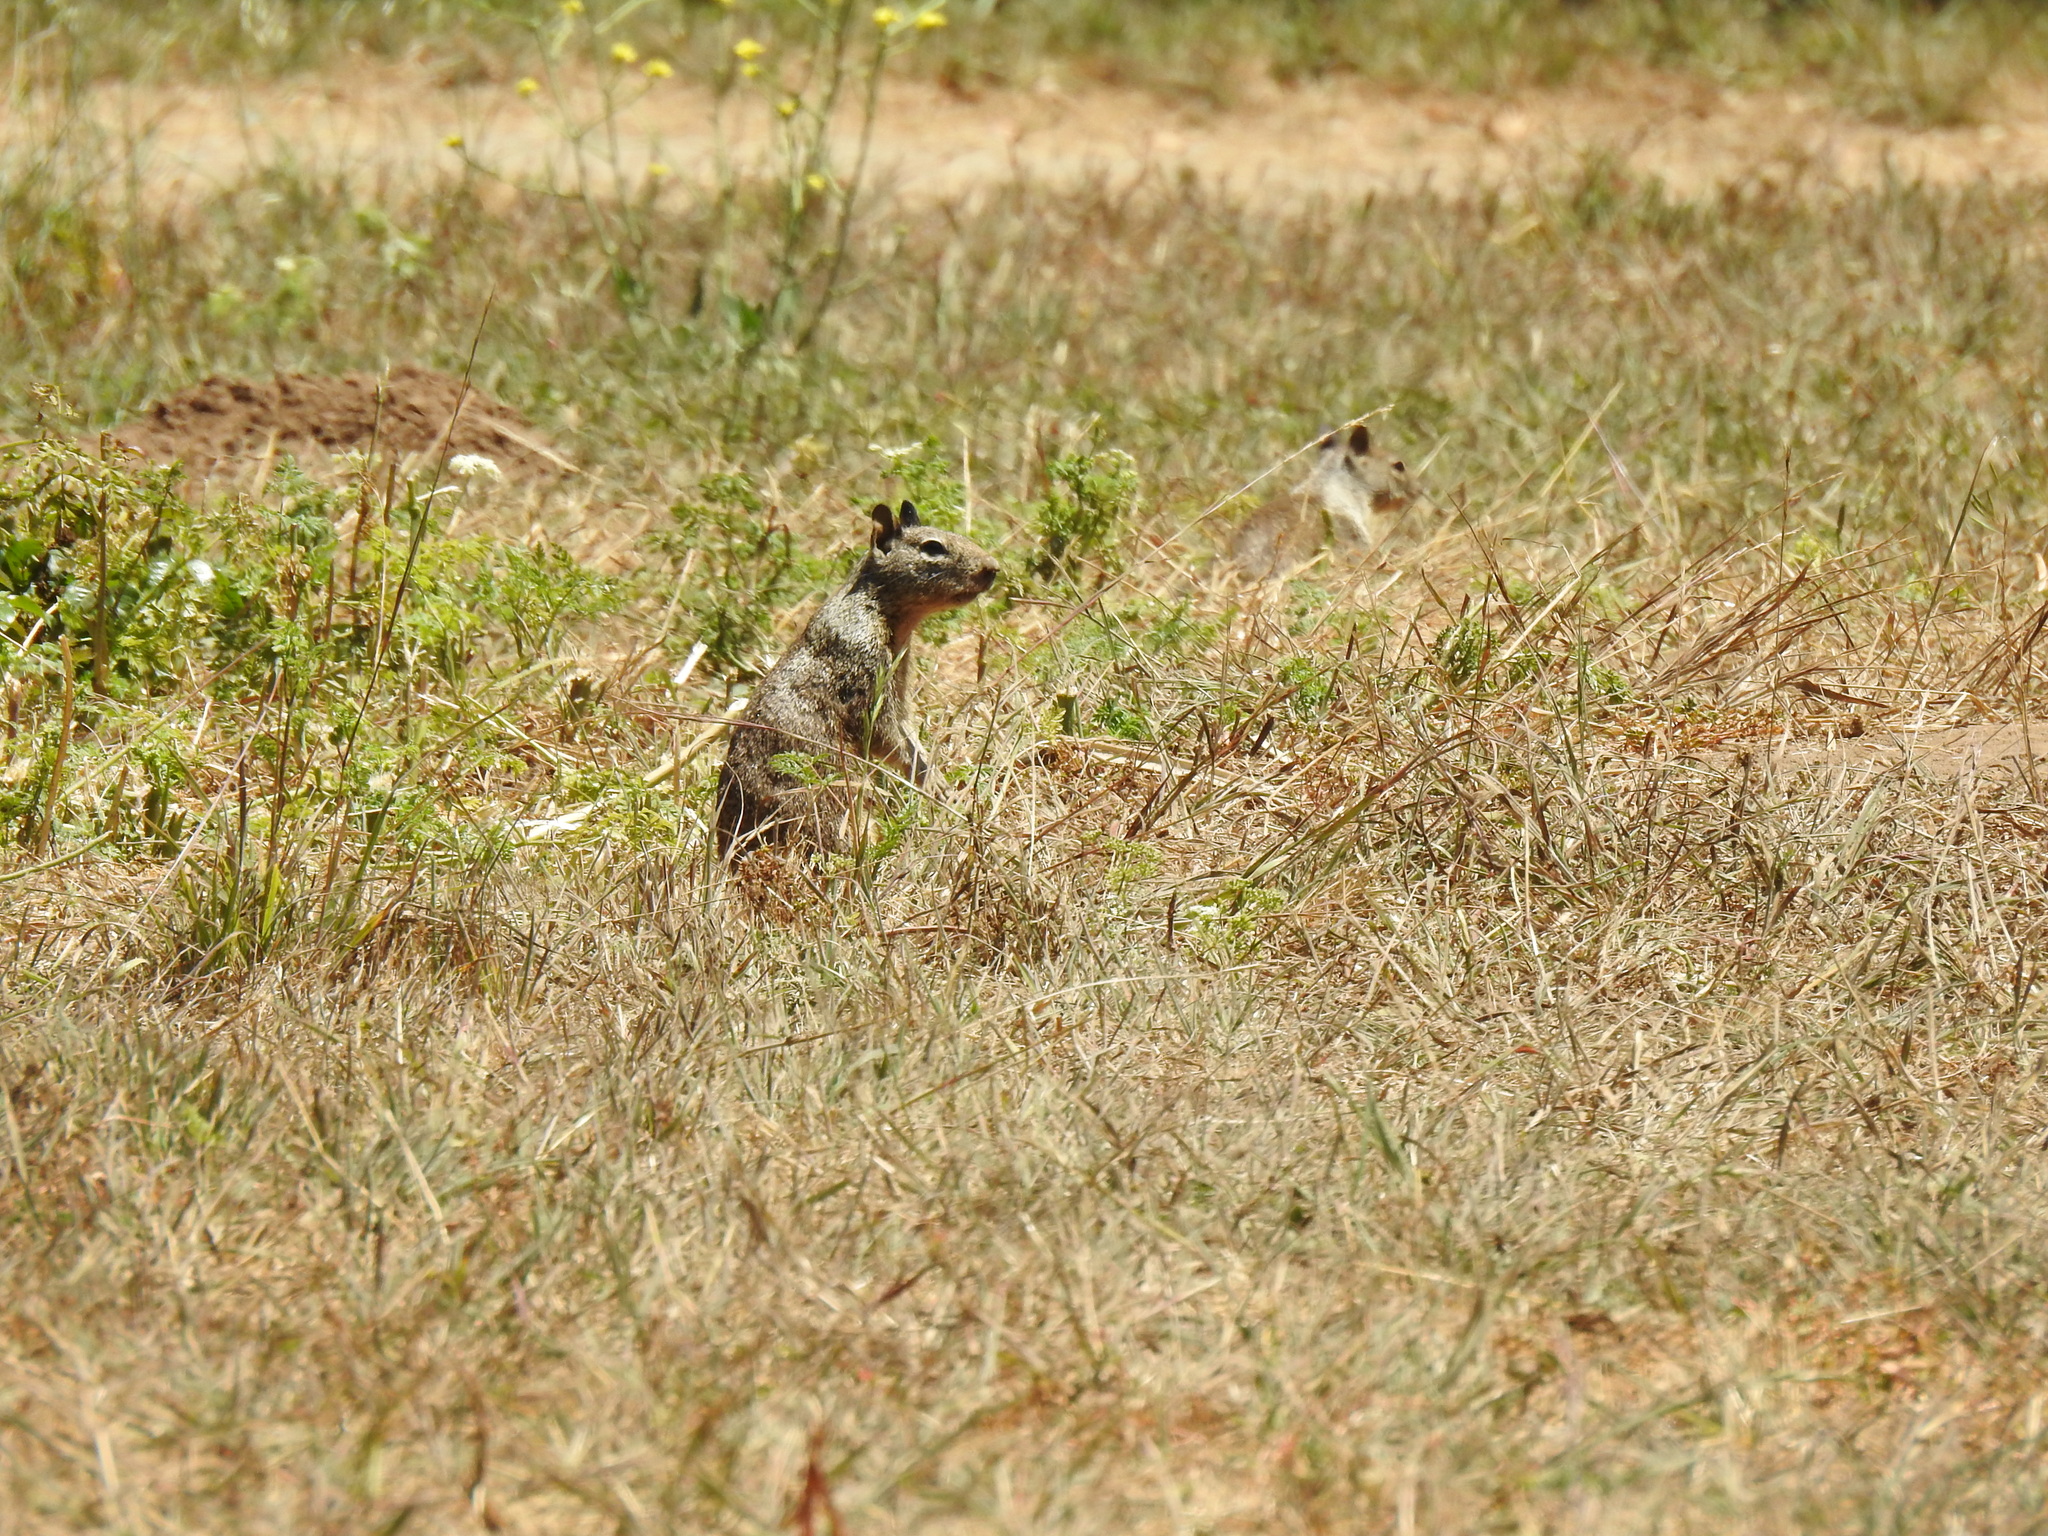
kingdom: Animalia
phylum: Chordata
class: Mammalia
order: Rodentia
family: Sciuridae
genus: Otospermophilus
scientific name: Otospermophilus beecheyi
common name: California ground squirrel
